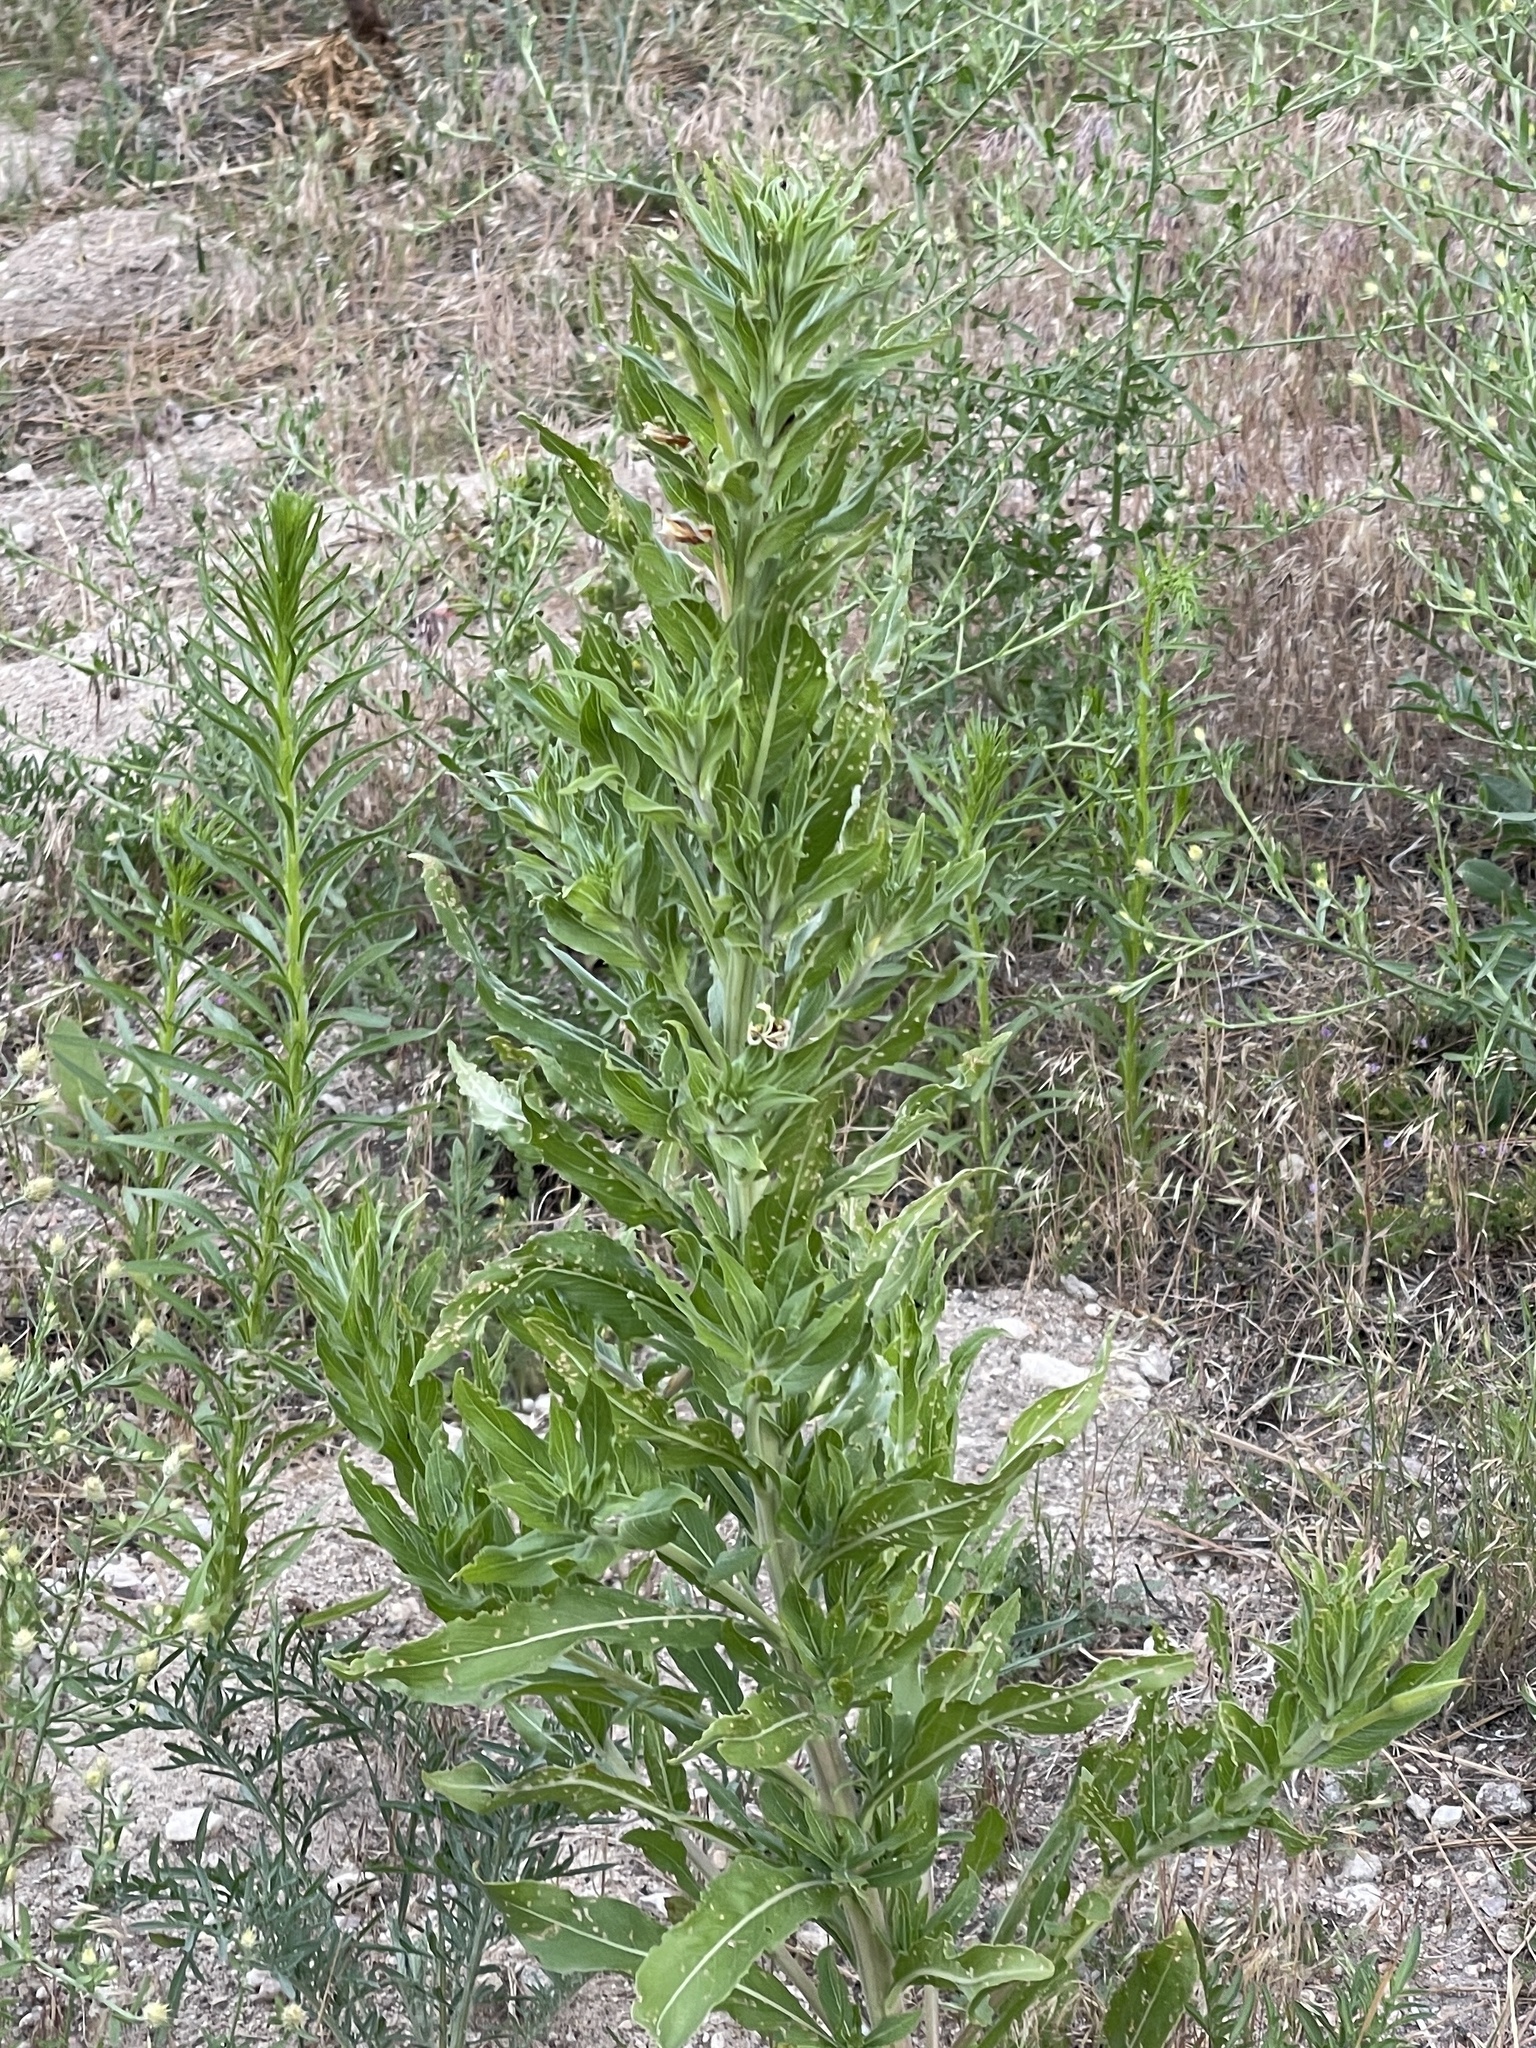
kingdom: Plantae
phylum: Tracheophyta
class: Magnoliopsida
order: Myrtales
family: Onagraceae
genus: Oenothera
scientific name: Oenothera villosa
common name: Hairy evening-primrose
